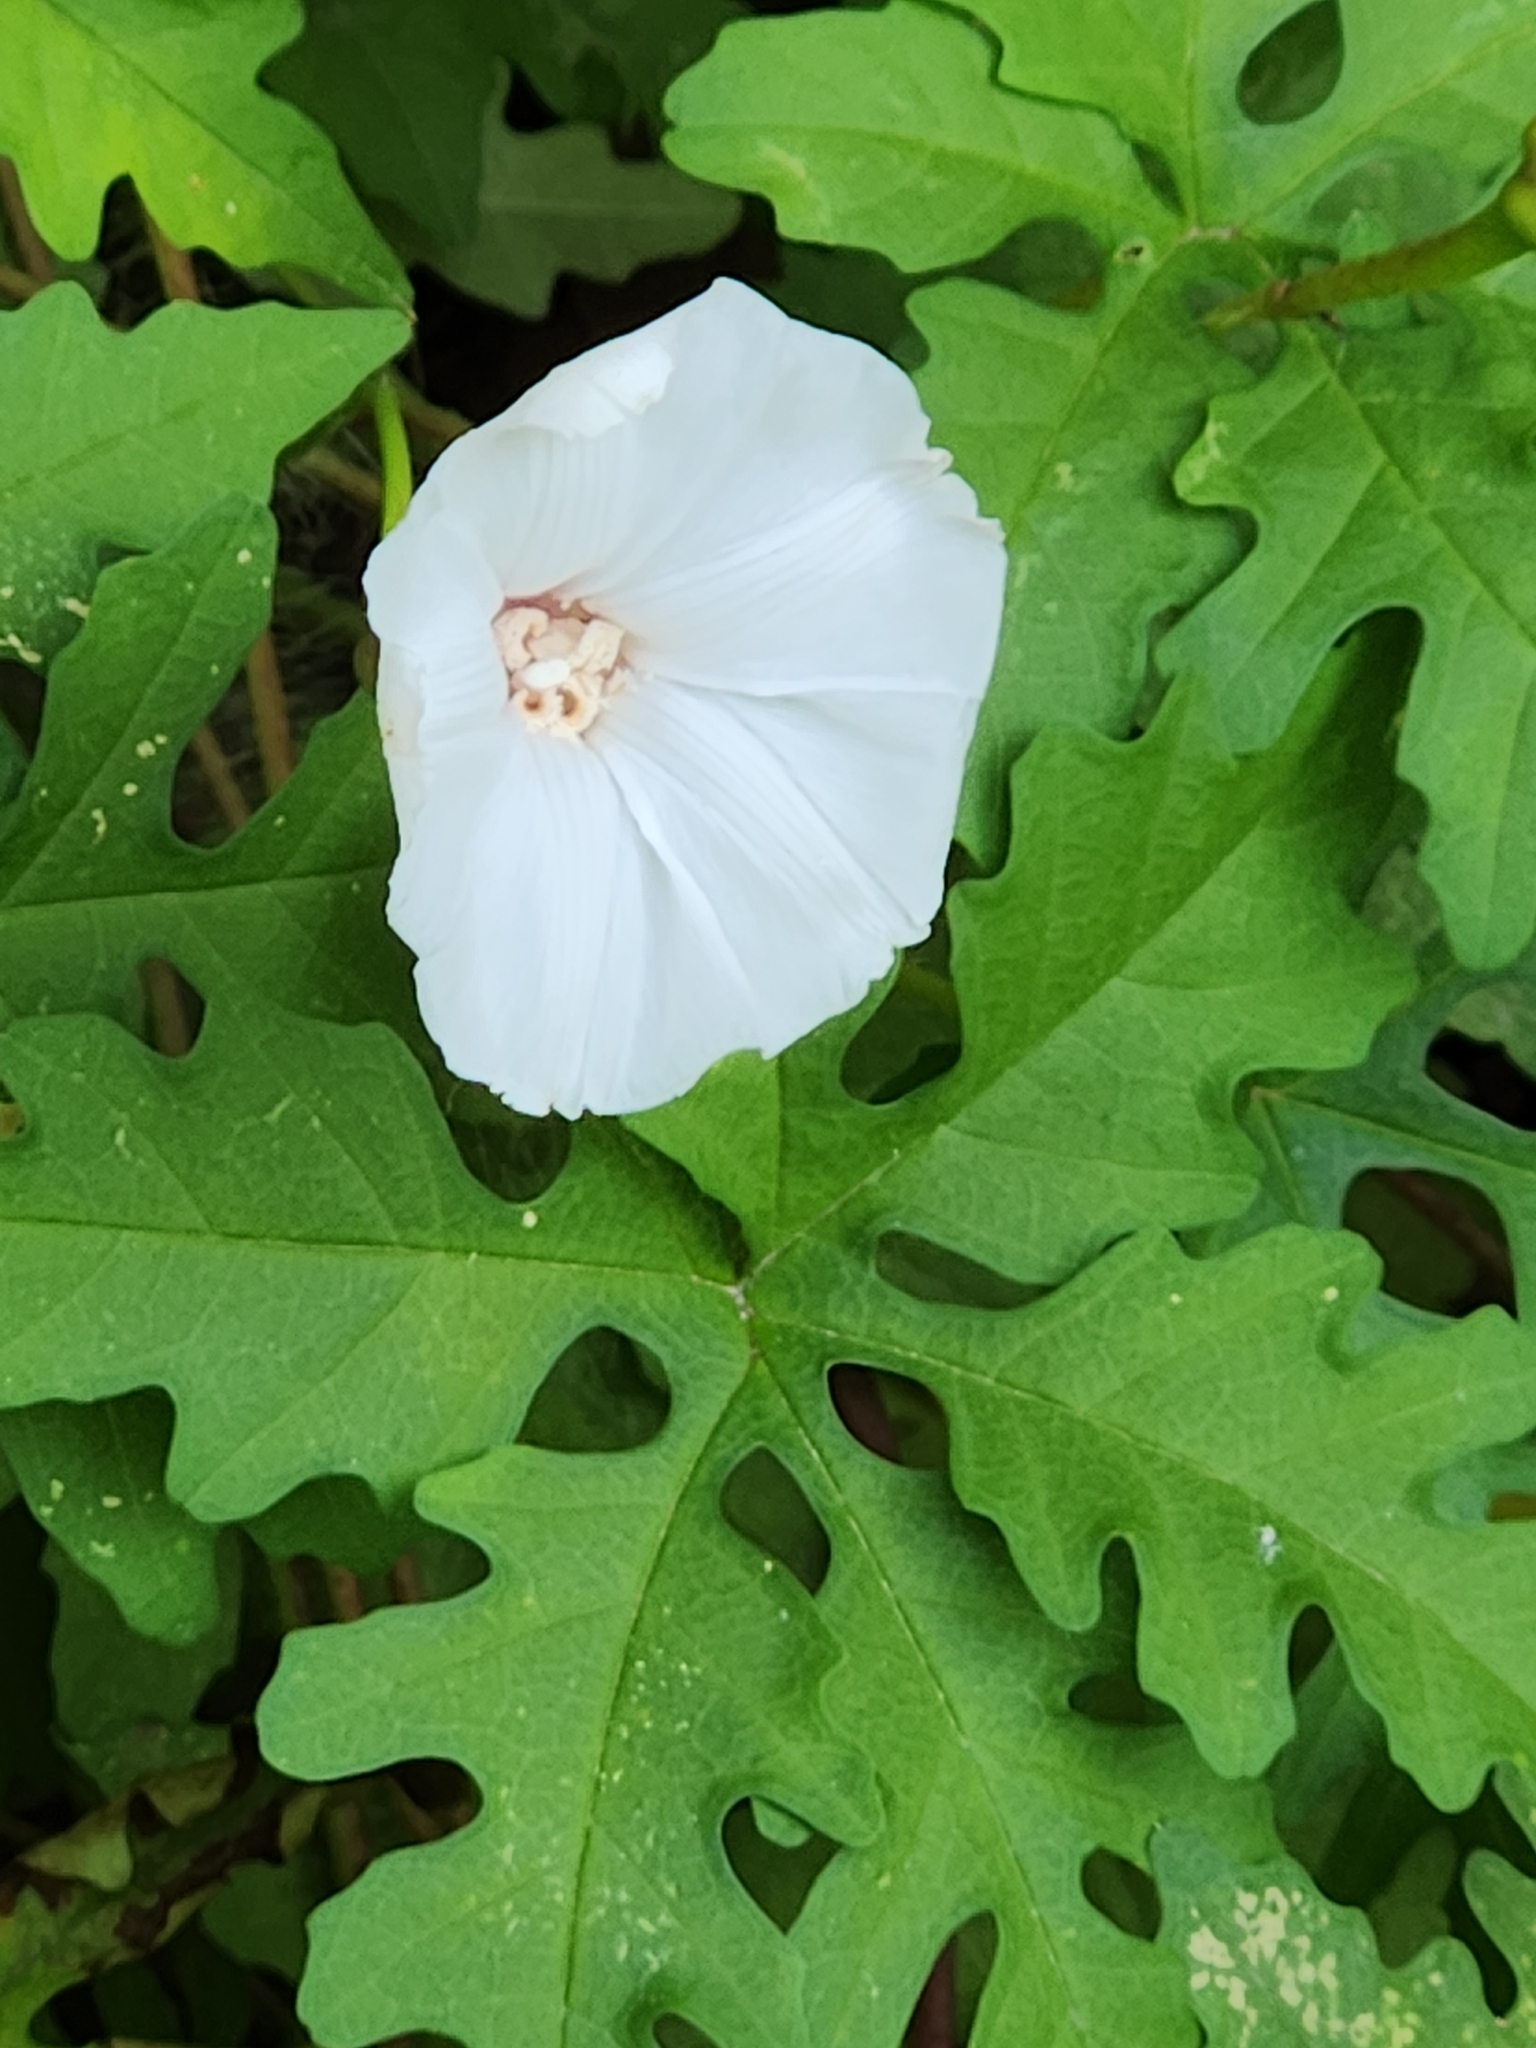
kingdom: Plantae
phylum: Tracheophyta
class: Magnoliopsida
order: Solanales
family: Convolvulaceae
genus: Distimake
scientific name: Distimake dissectus
